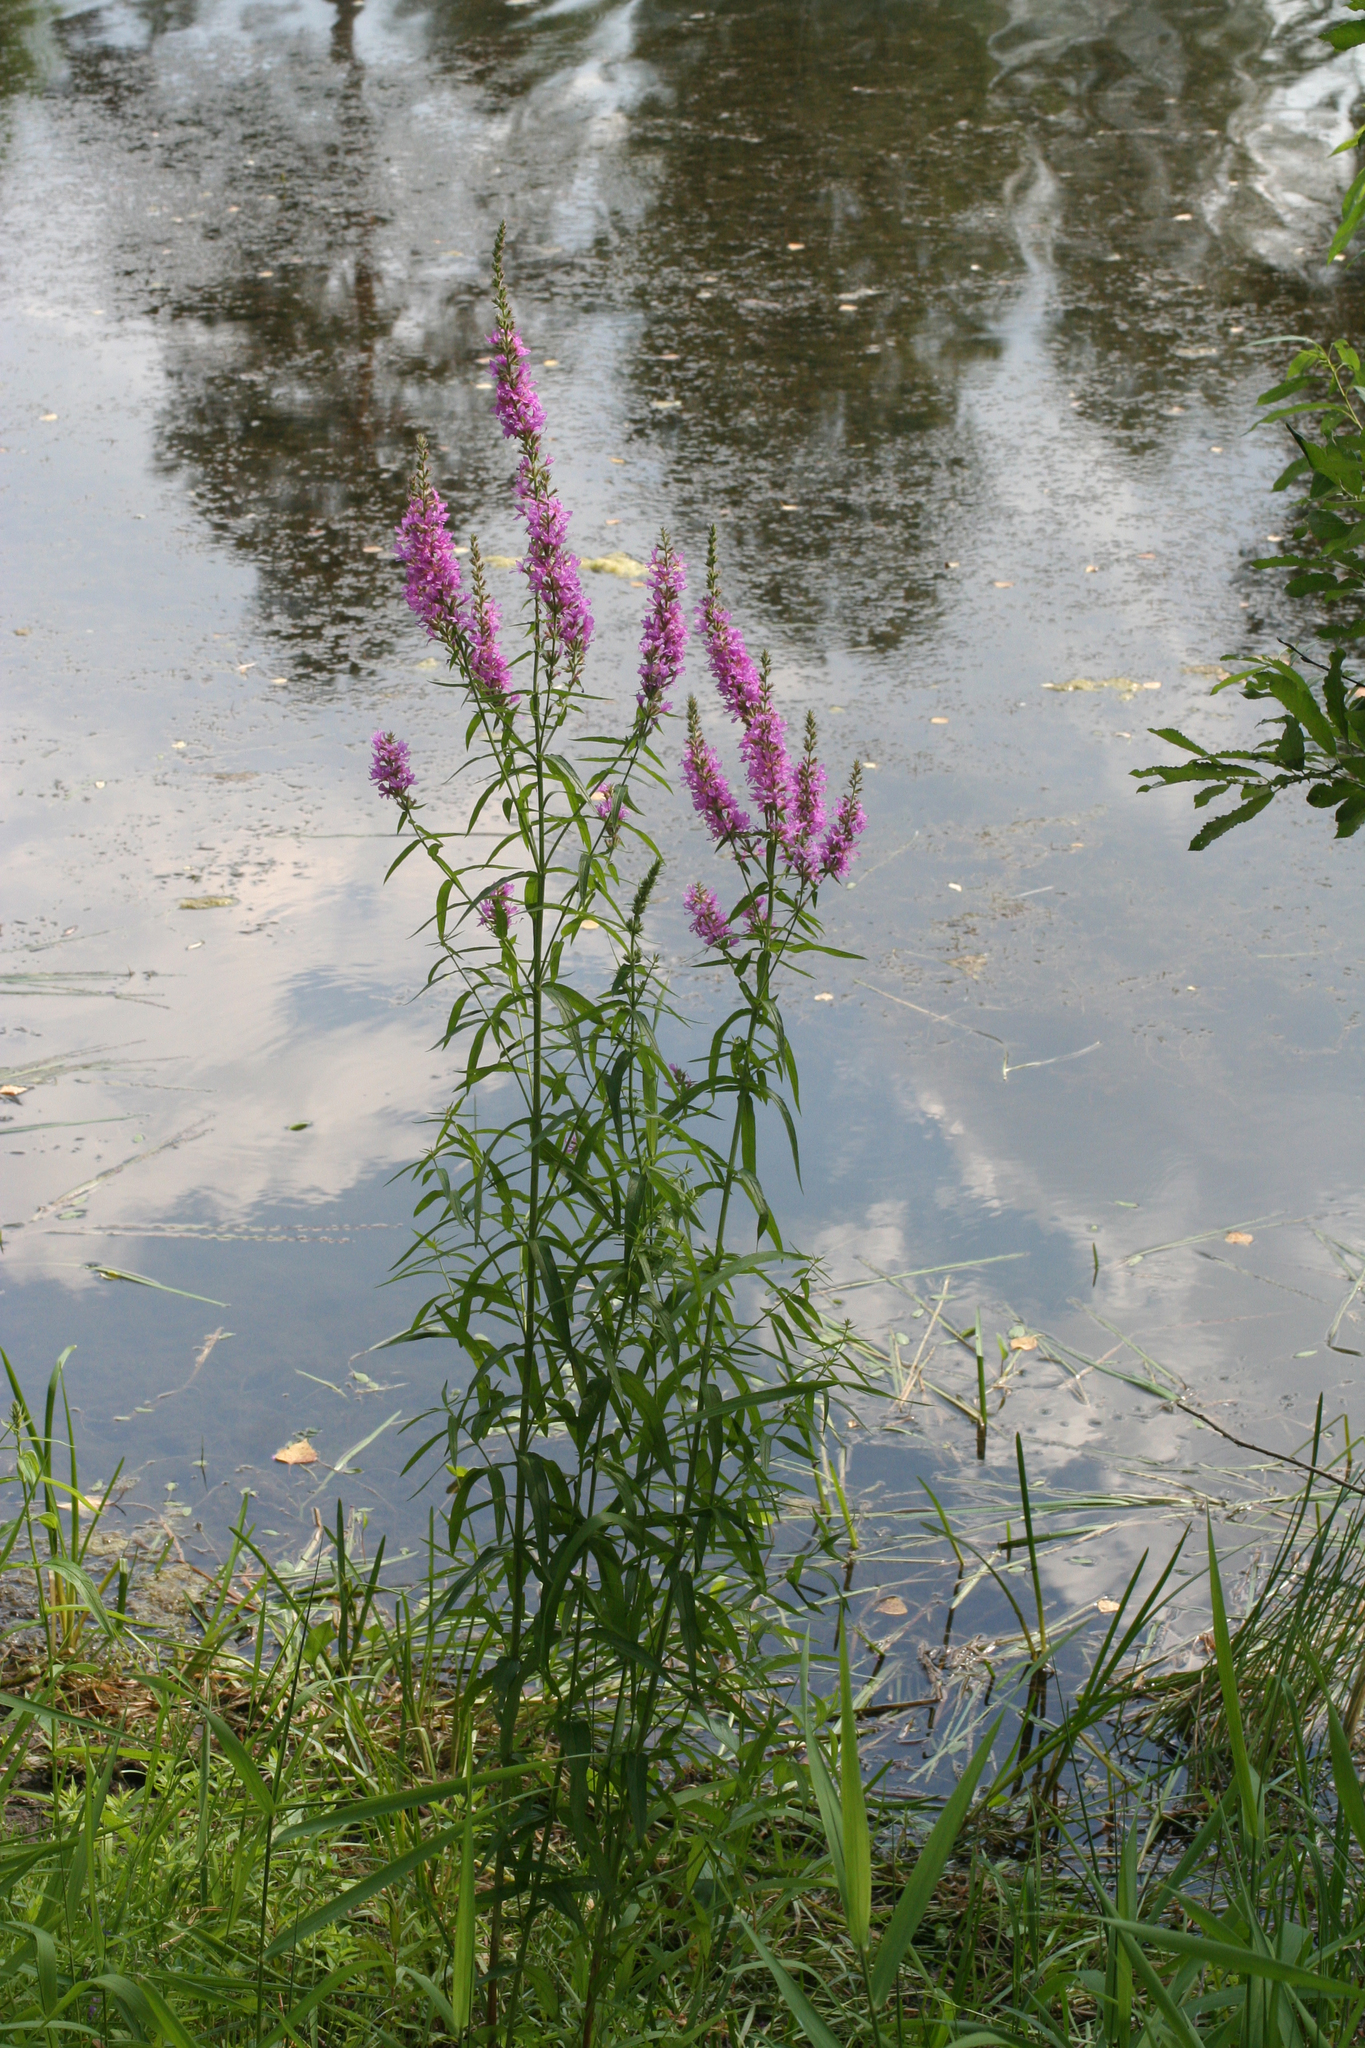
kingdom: Plantae
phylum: Tracheophyta
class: Magnoliopsida
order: Myrtales
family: Lythraceae
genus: Lythrum
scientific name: Lythrum salicaria
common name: Purple loosestrife
